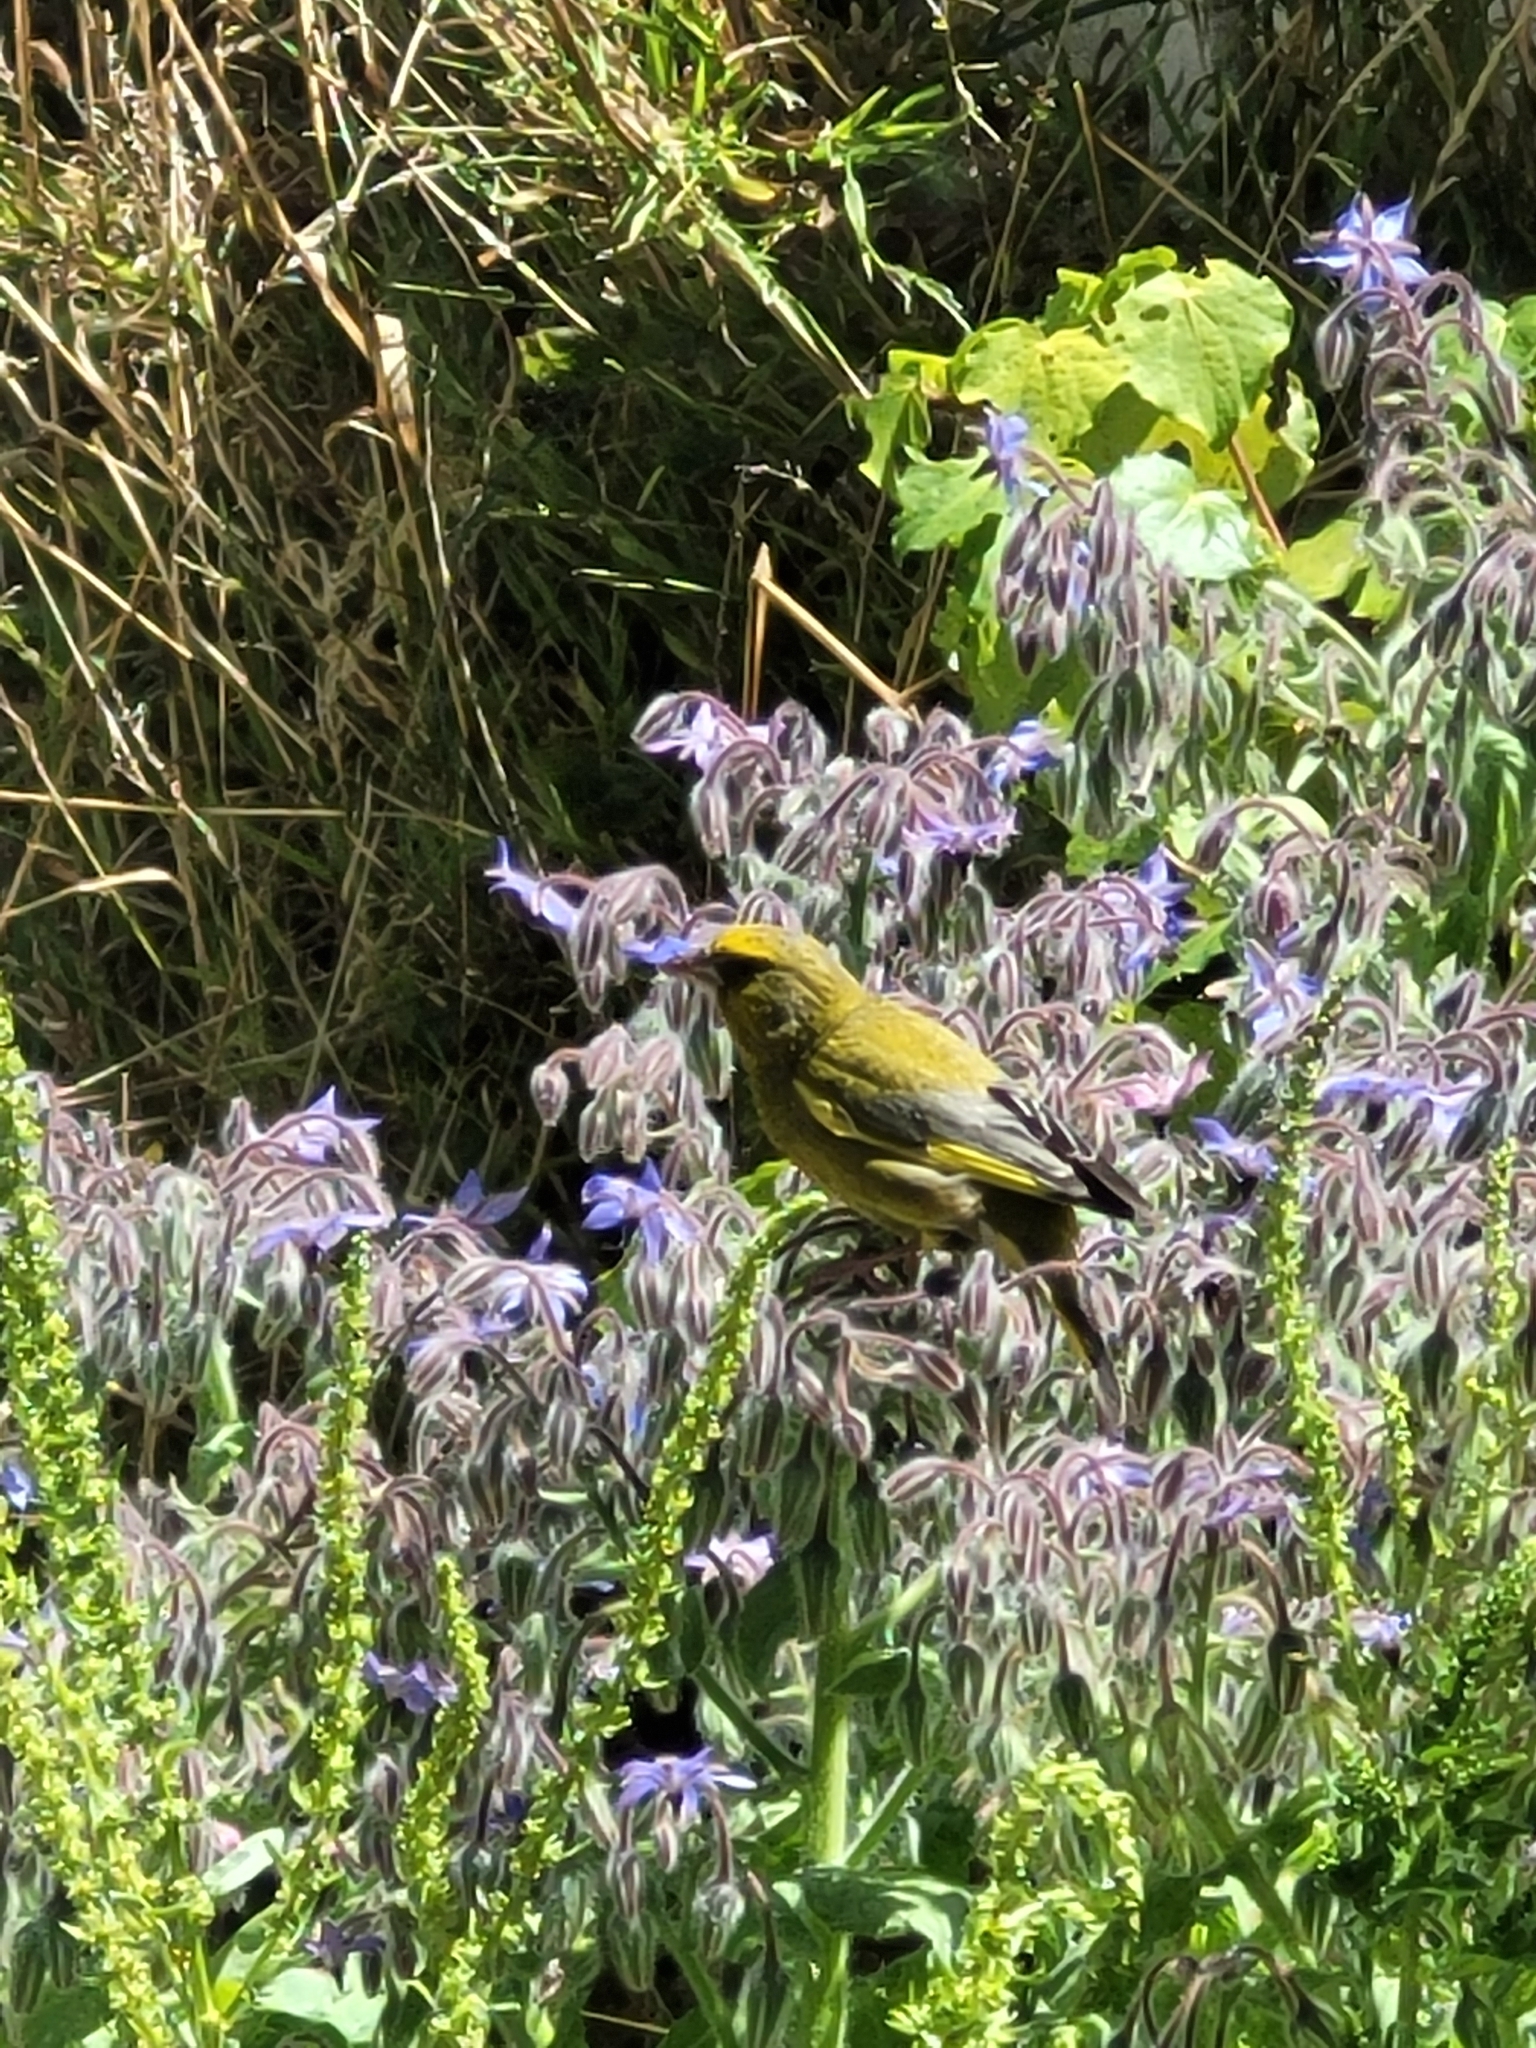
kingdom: Plantae
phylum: Tracheophyta
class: Liliopsida
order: Poales
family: Poaceae
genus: Chloris
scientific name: Chloris chloris
